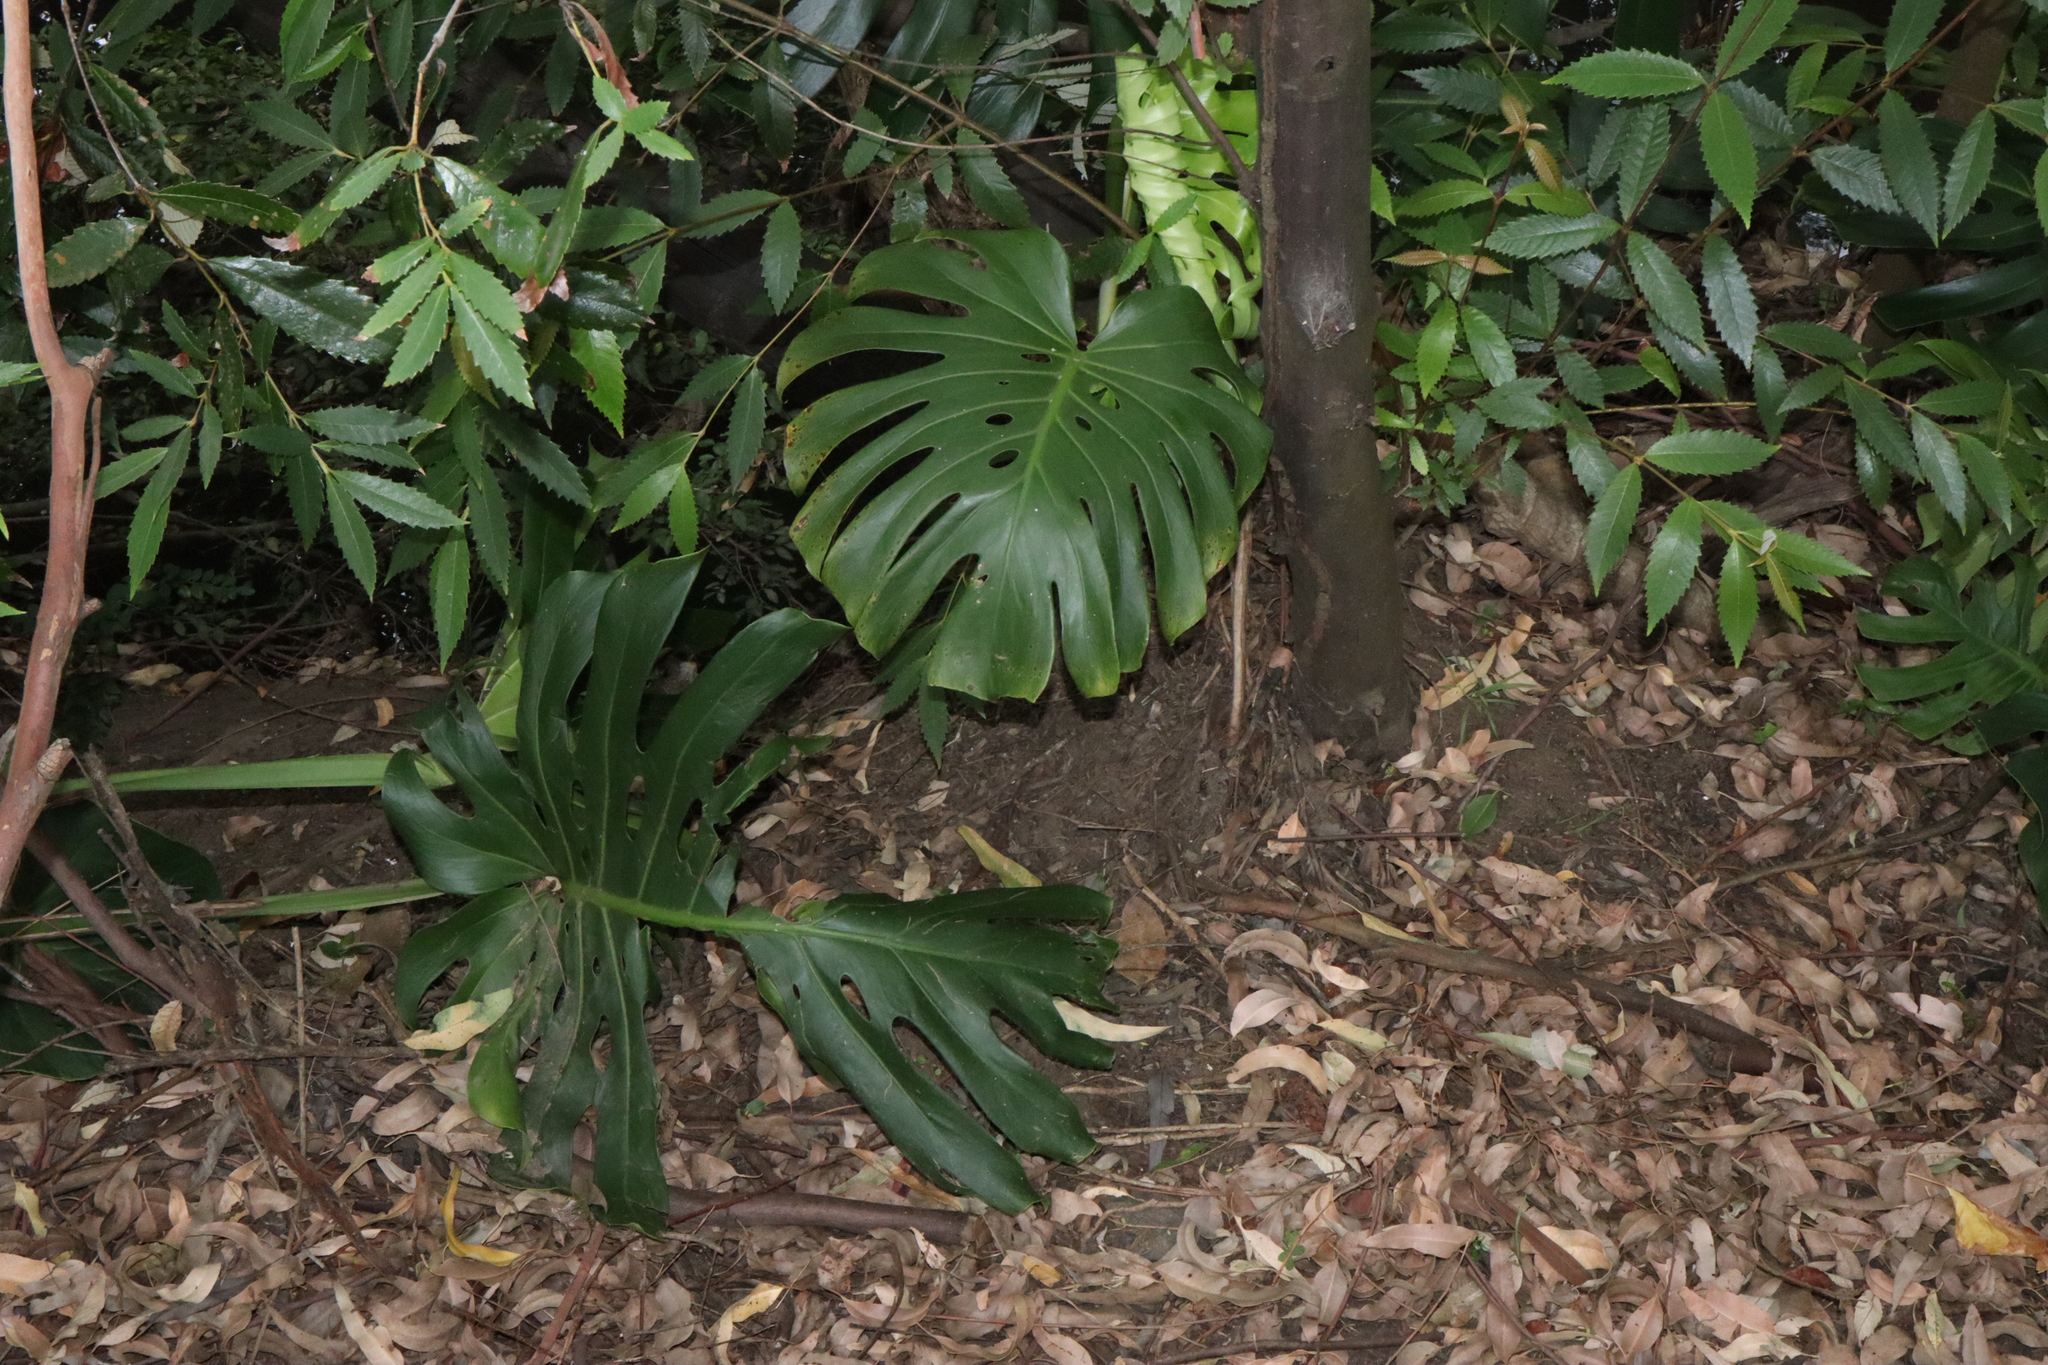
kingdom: Plantae
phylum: Tracheophyta
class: Liliopsida
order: Alismatales
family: Araceae
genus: Monstera
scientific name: Monstera deliciosa
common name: Cut-leaf-philodendron
